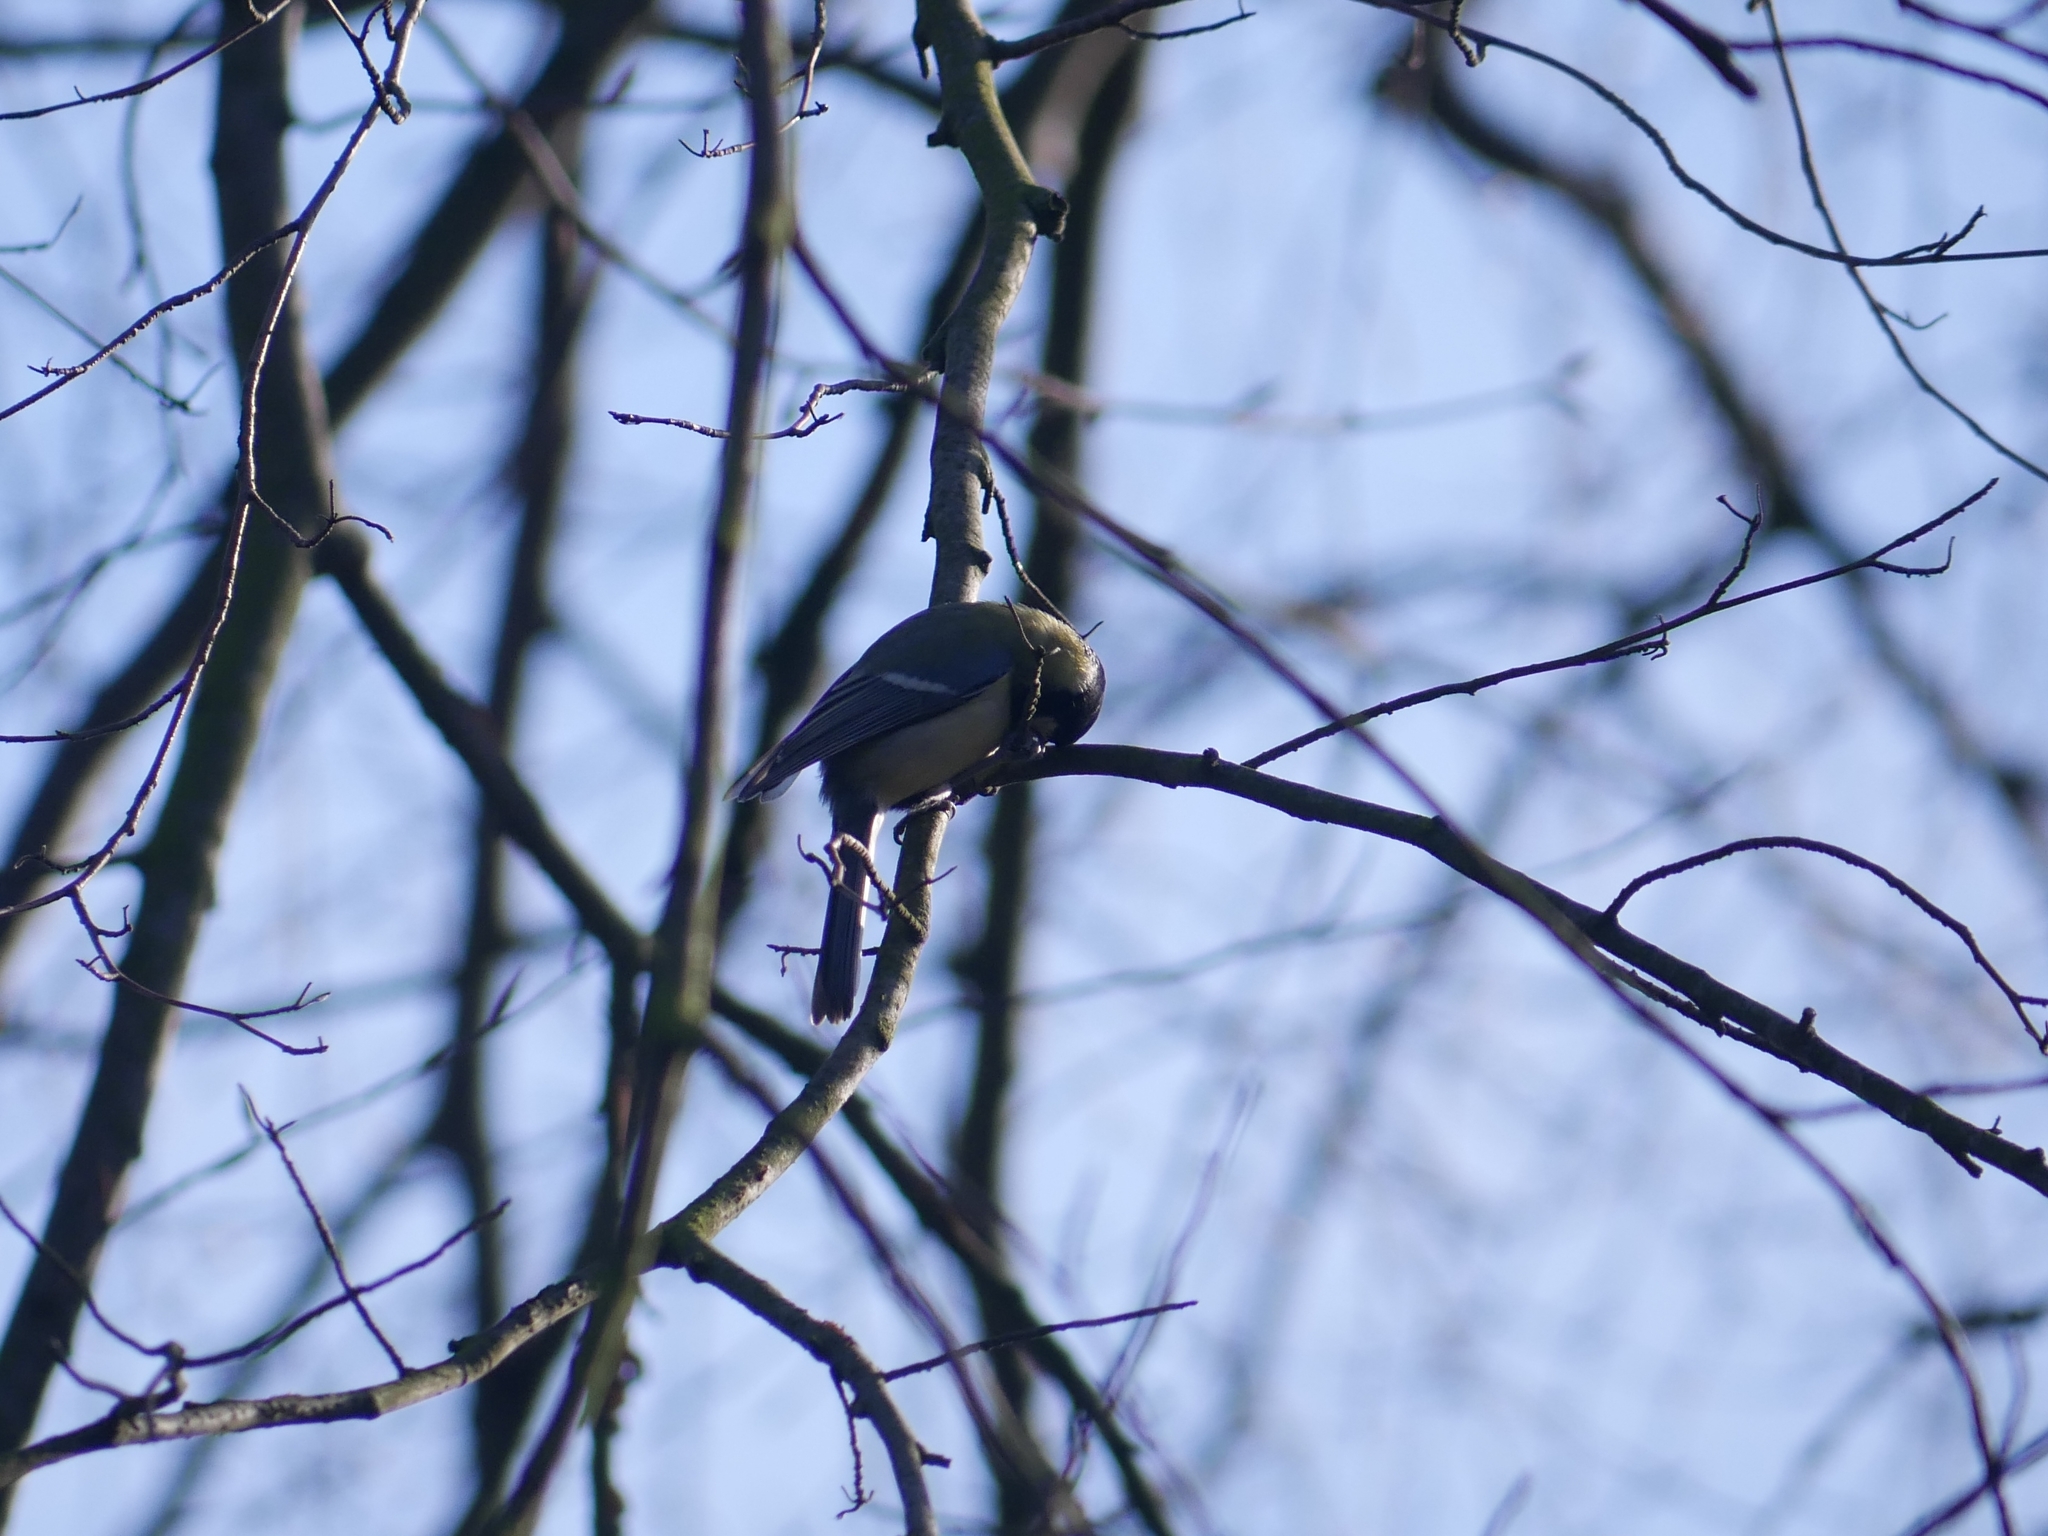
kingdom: Animalia
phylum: Chordata
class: Aves
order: Passeriformes
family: Paridae
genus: Parus
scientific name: Parus major
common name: Great tit
